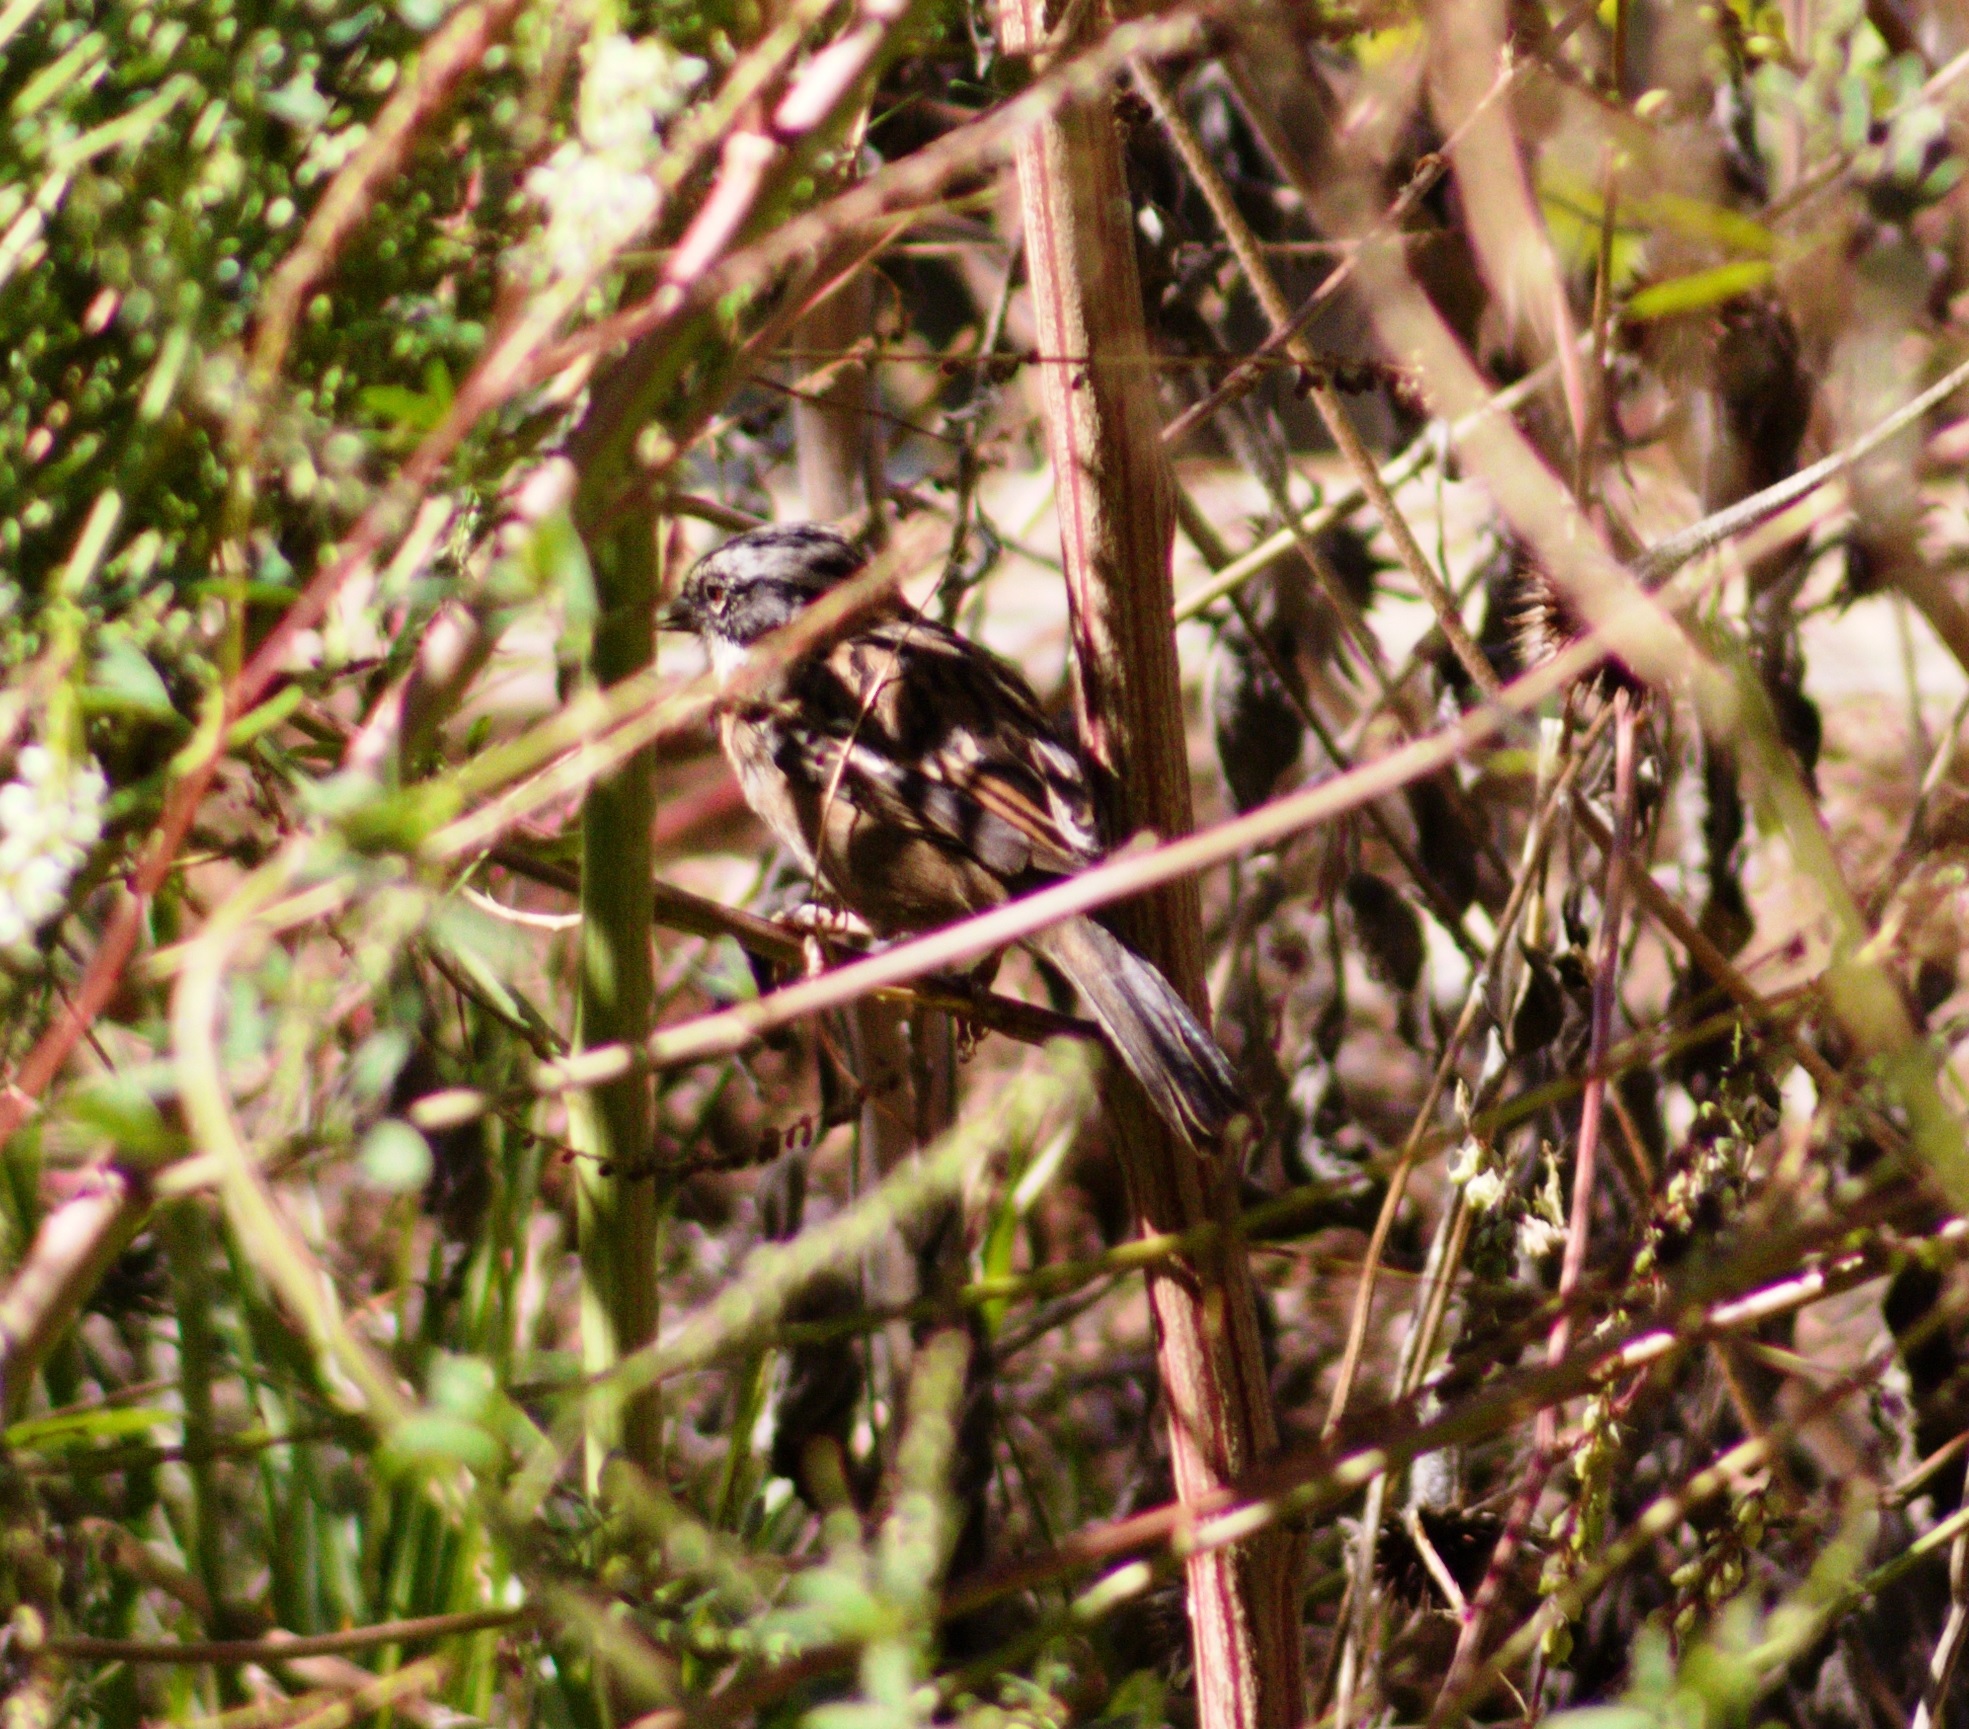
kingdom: Animalia
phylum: Chordata
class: Aves
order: Passeriformes
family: Passerellidae
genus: Zonotrichia
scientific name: Zonotrichia capensis
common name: Rufous-collared sparrow
